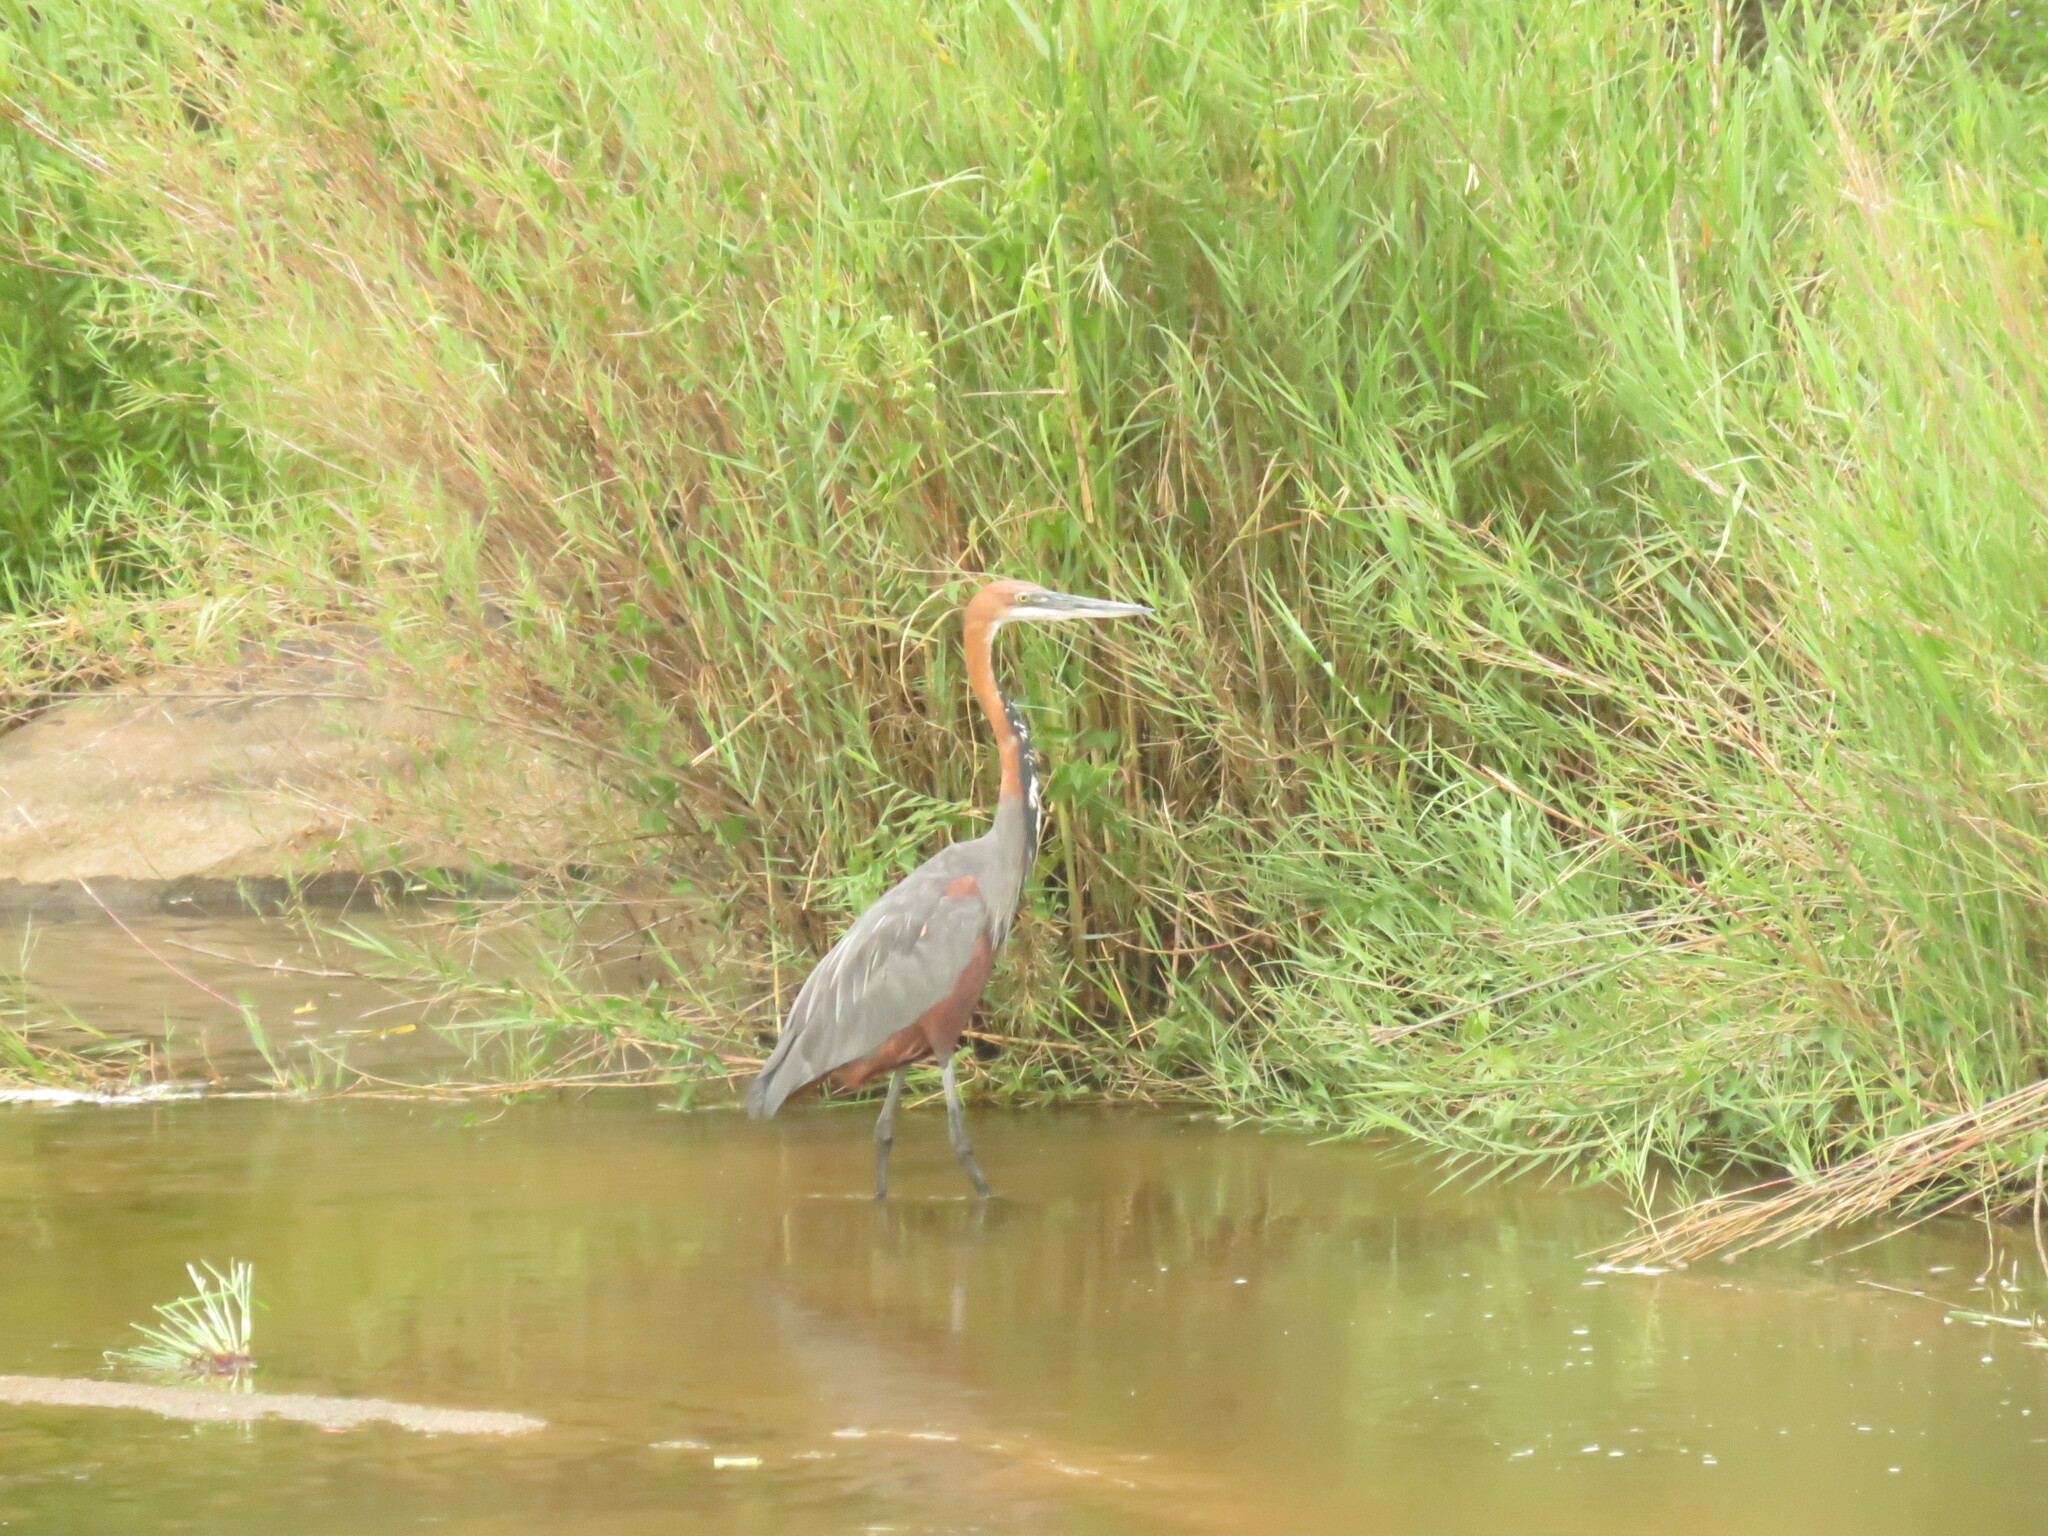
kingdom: Animalia
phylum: Chordata
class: Aves
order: Pelecaniformes
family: Ardeidae
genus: Ardea
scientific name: Ardea goliath
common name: Goliath heron
